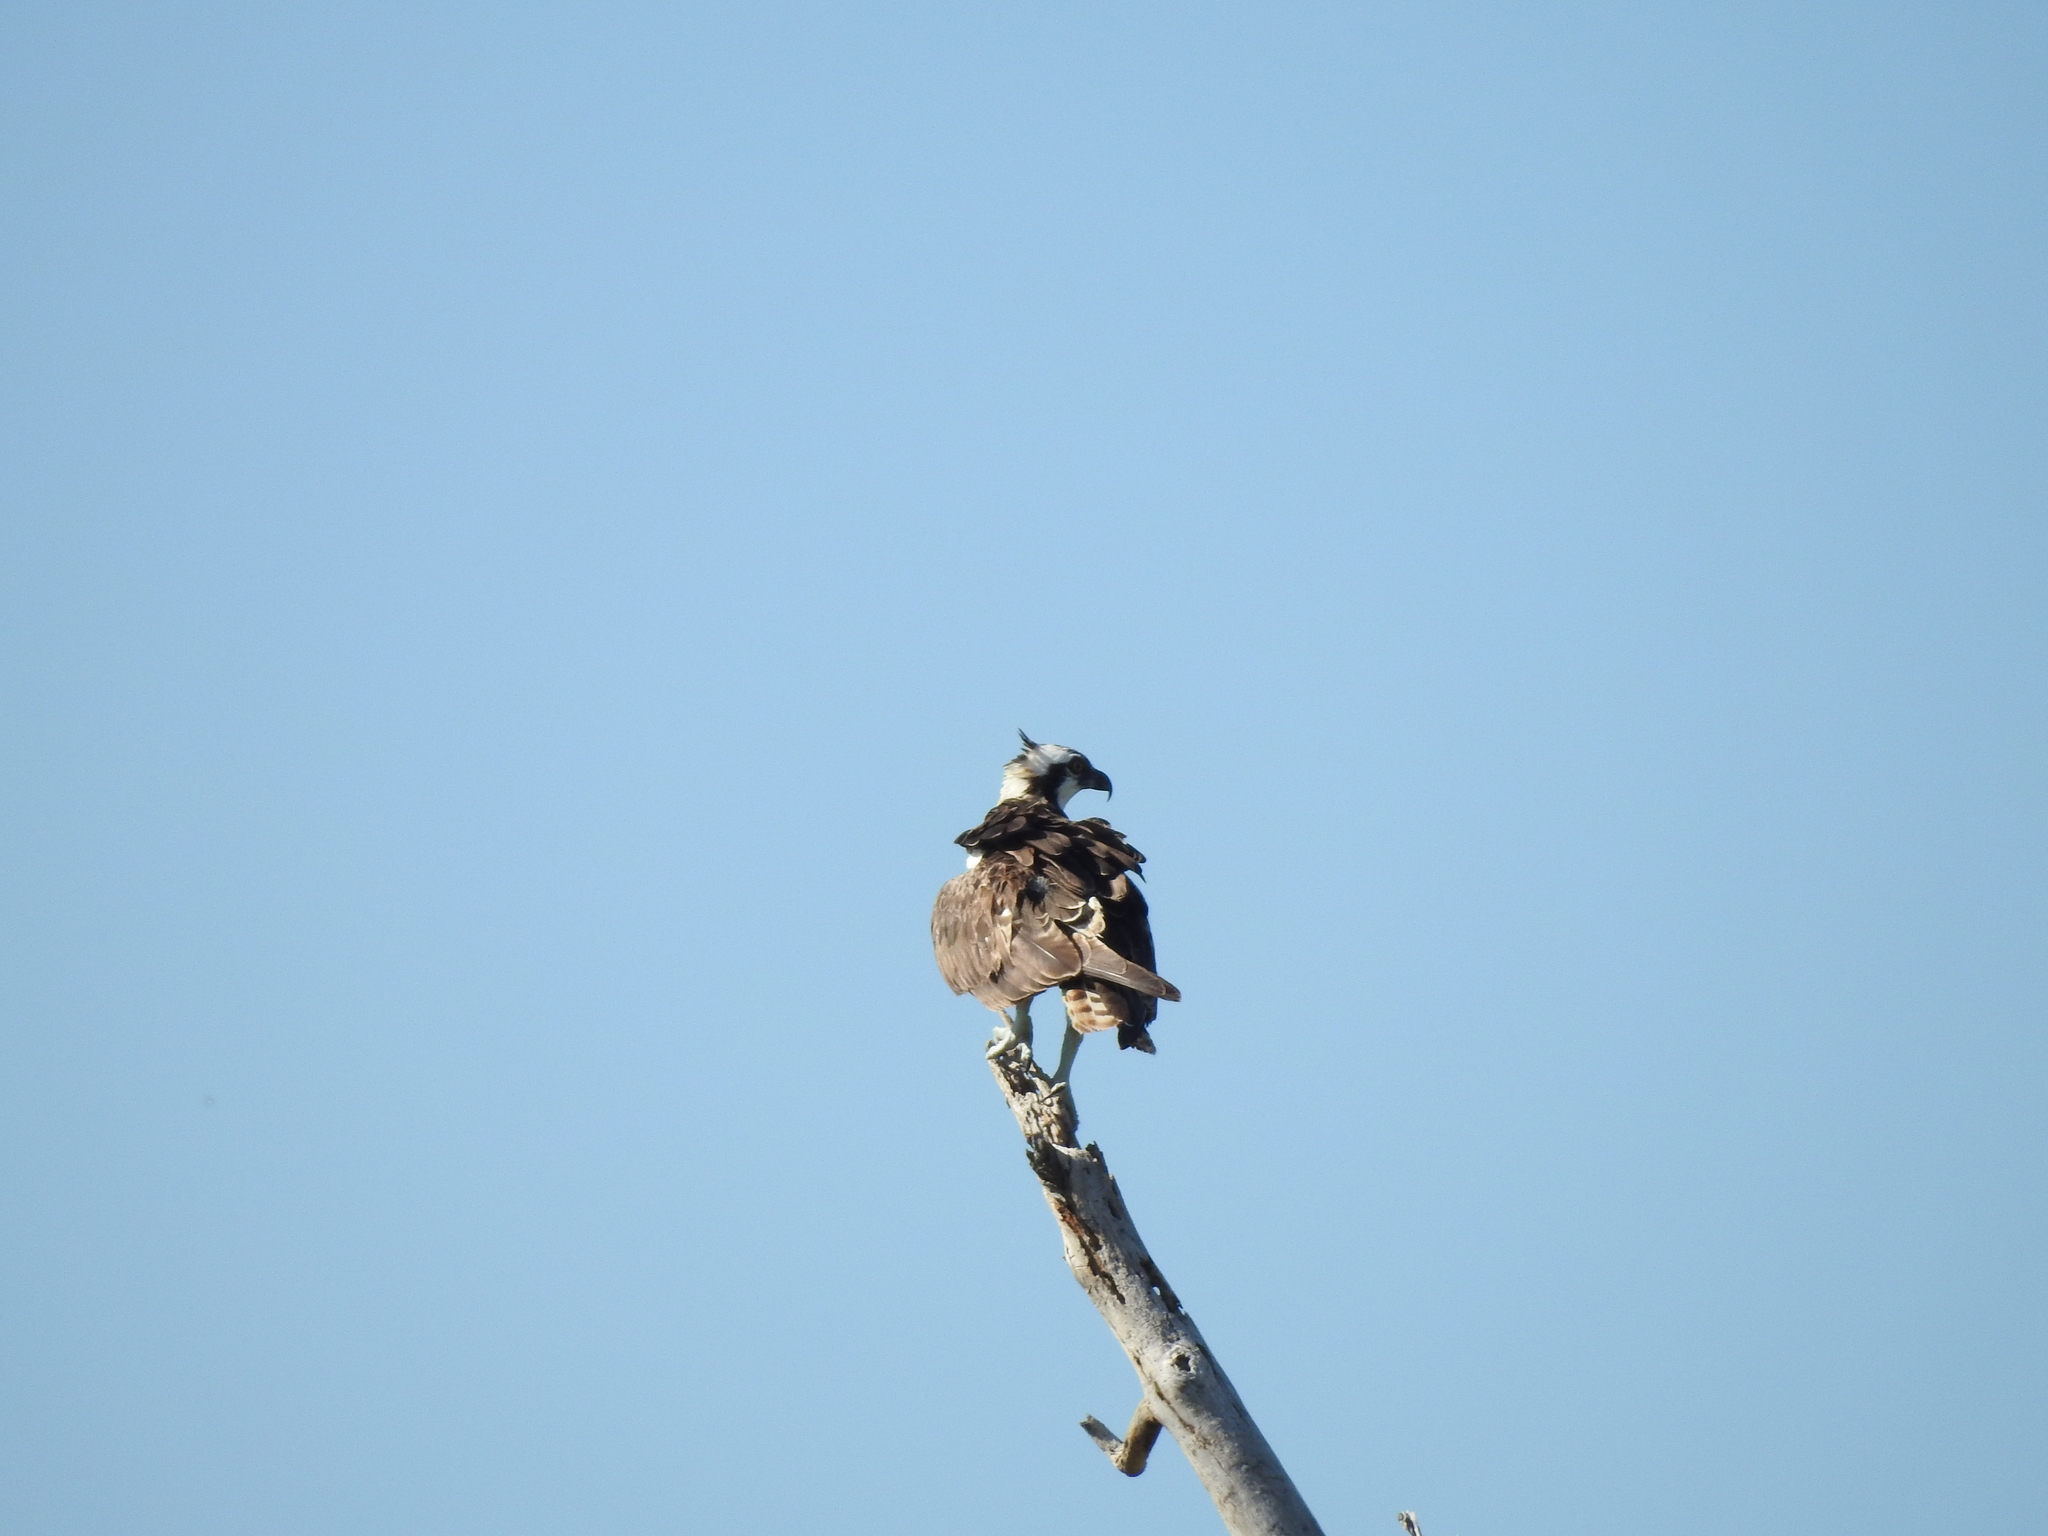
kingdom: Animalia
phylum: Chordata
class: Aves
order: Accipitriformes
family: Pandionidae
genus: Pandion
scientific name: Pandion haliaetus
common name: Osprey
